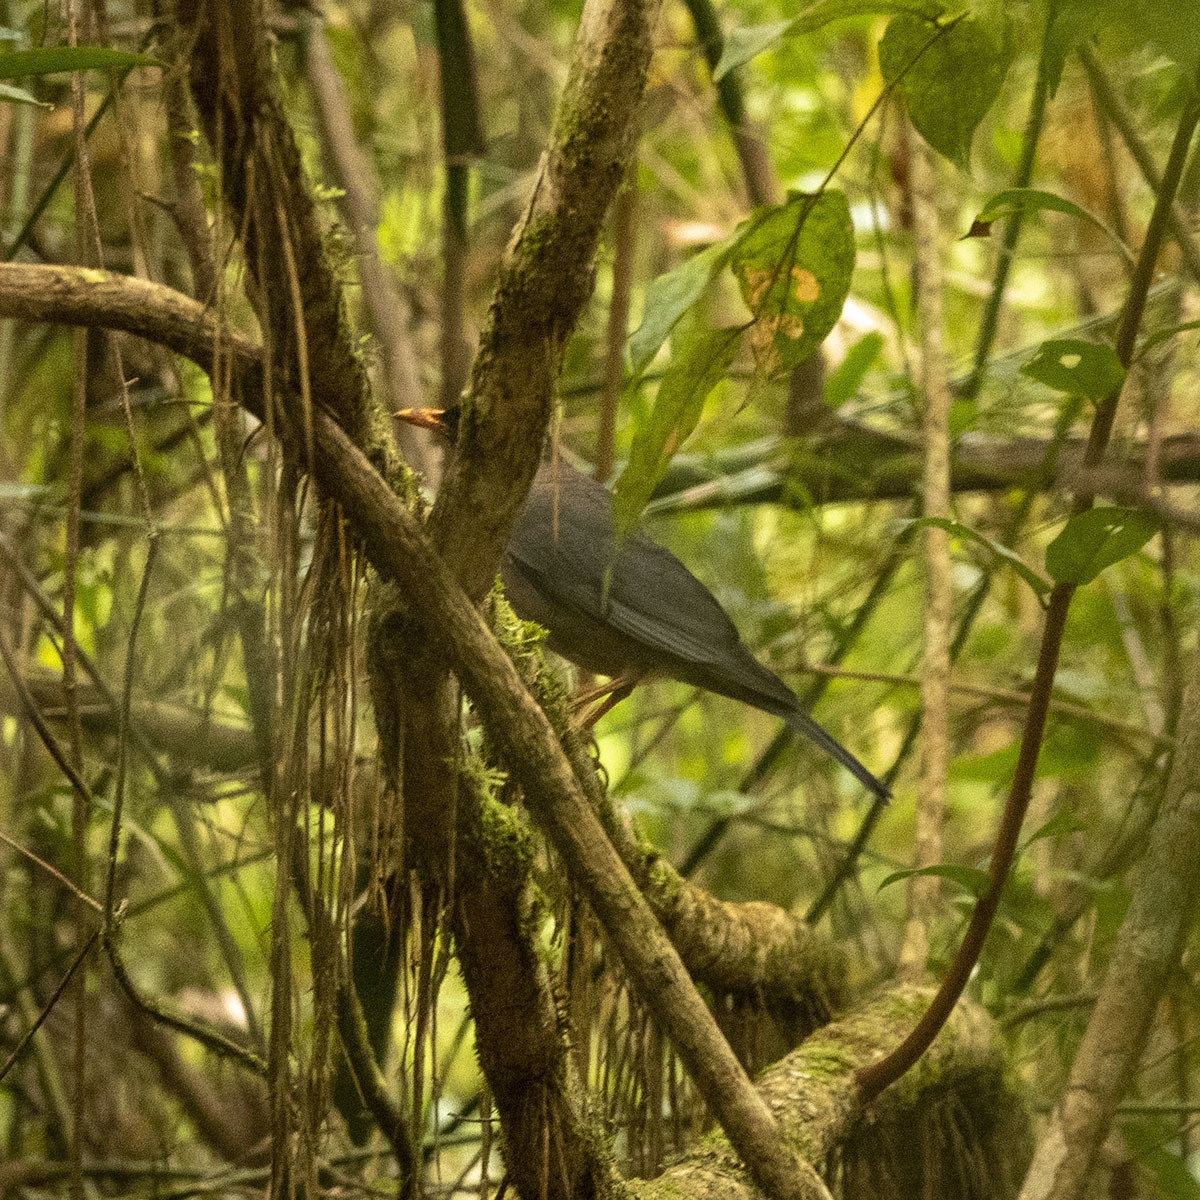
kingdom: Animalia
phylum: Chordata
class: Aves
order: Passeriformes
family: Turdidae
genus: Turdus
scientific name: Turdus simillimus
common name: Indian blackbird
